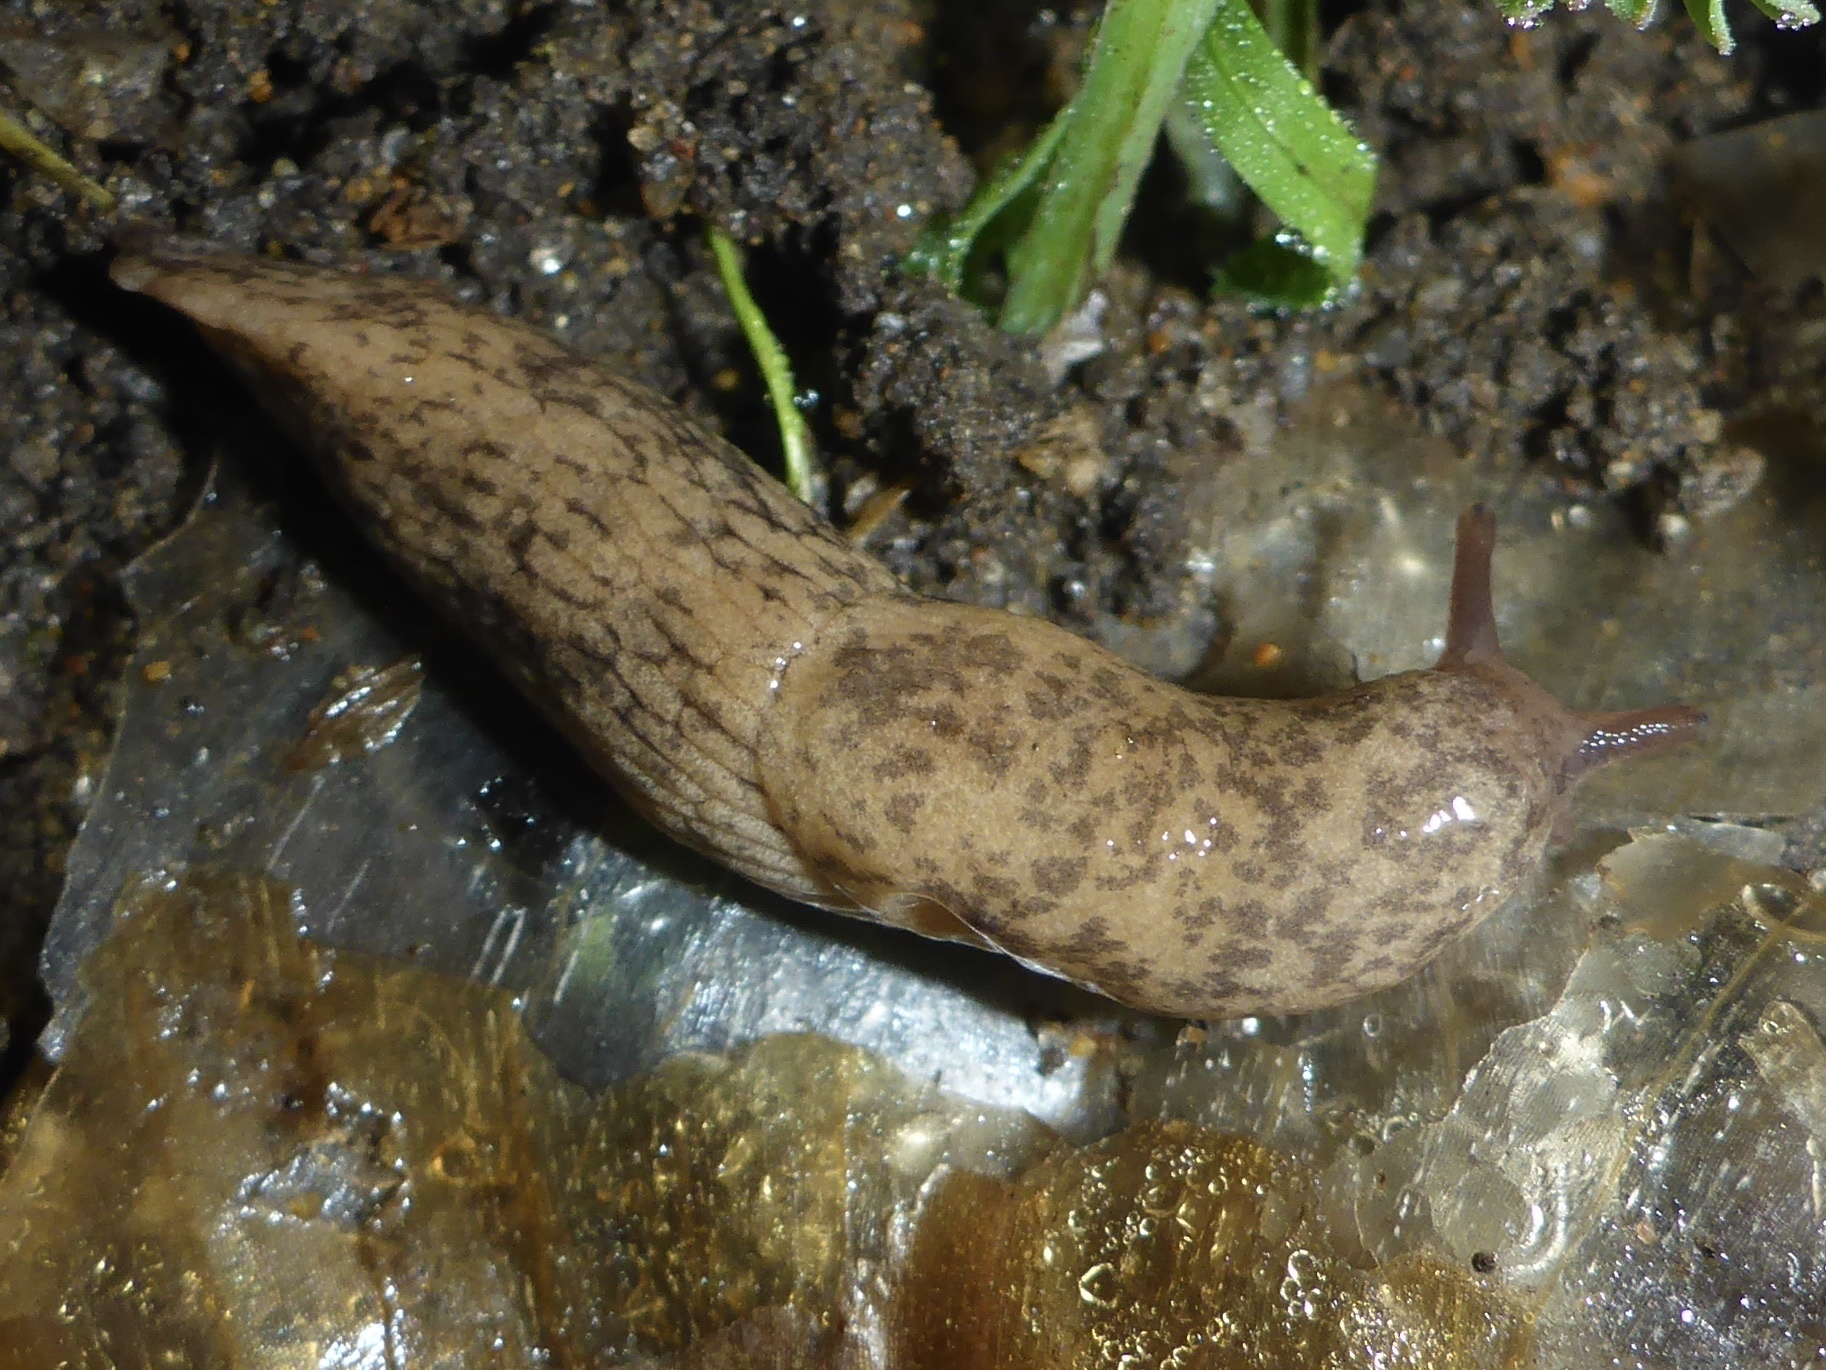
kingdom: Animalia
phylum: Mollusca
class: Gastropoda
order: Stylommatophora
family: Agriolimacidae
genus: Deroceras
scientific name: Deroceras reticulatum
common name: Gray field slug
